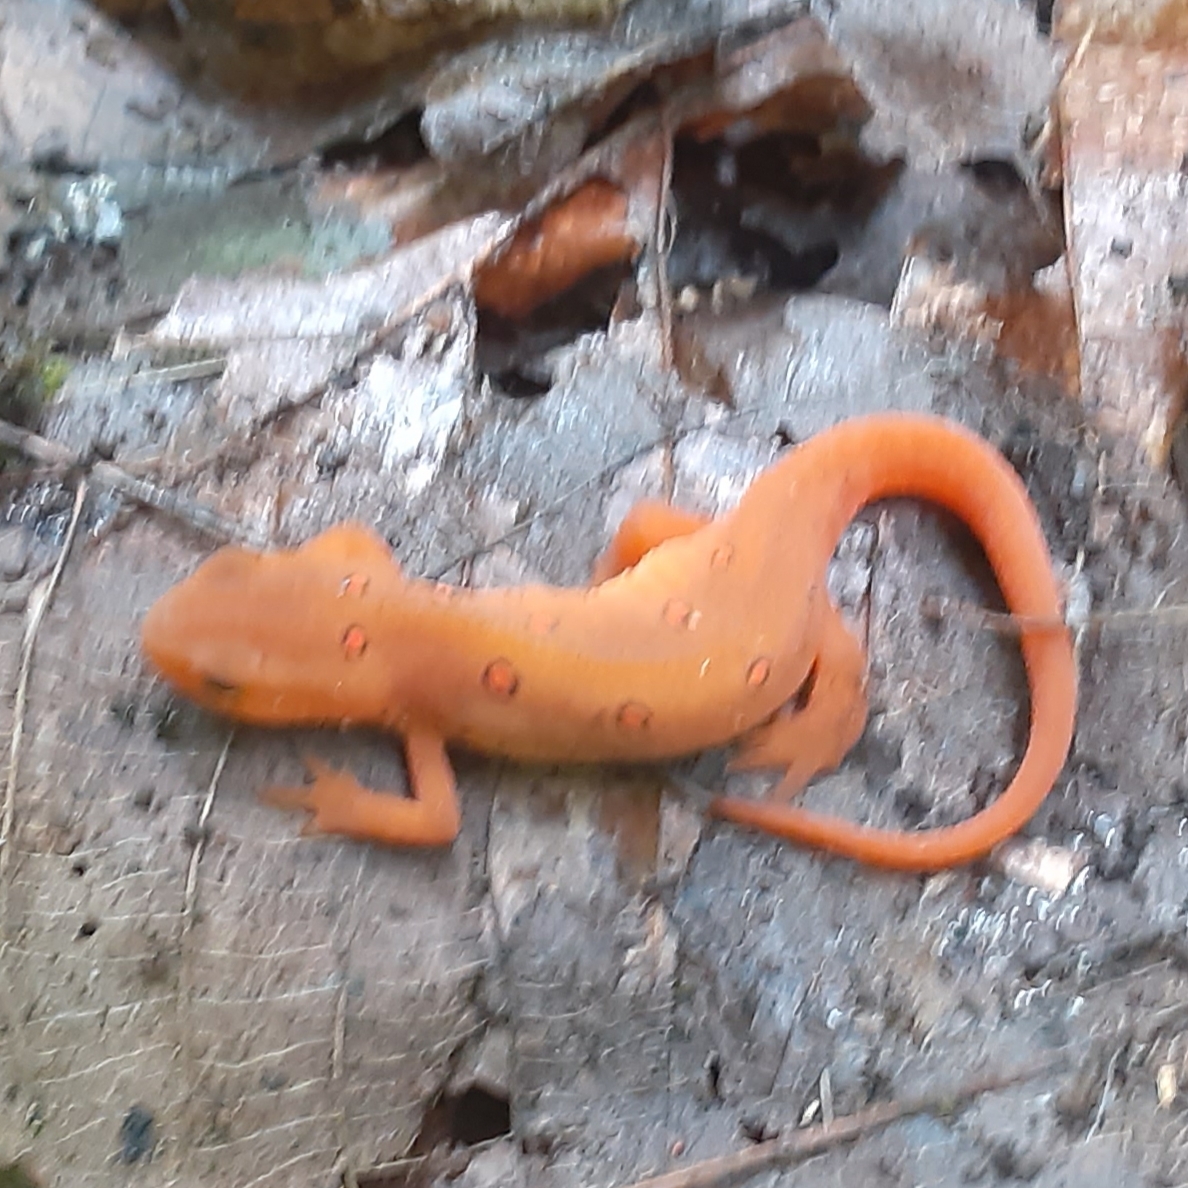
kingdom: Animalia
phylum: Chordata
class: Amphibia
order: Caudata
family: Salamandridae
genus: Notophthalmus
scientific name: Notophthalmus viridescens
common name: Eastern newt
